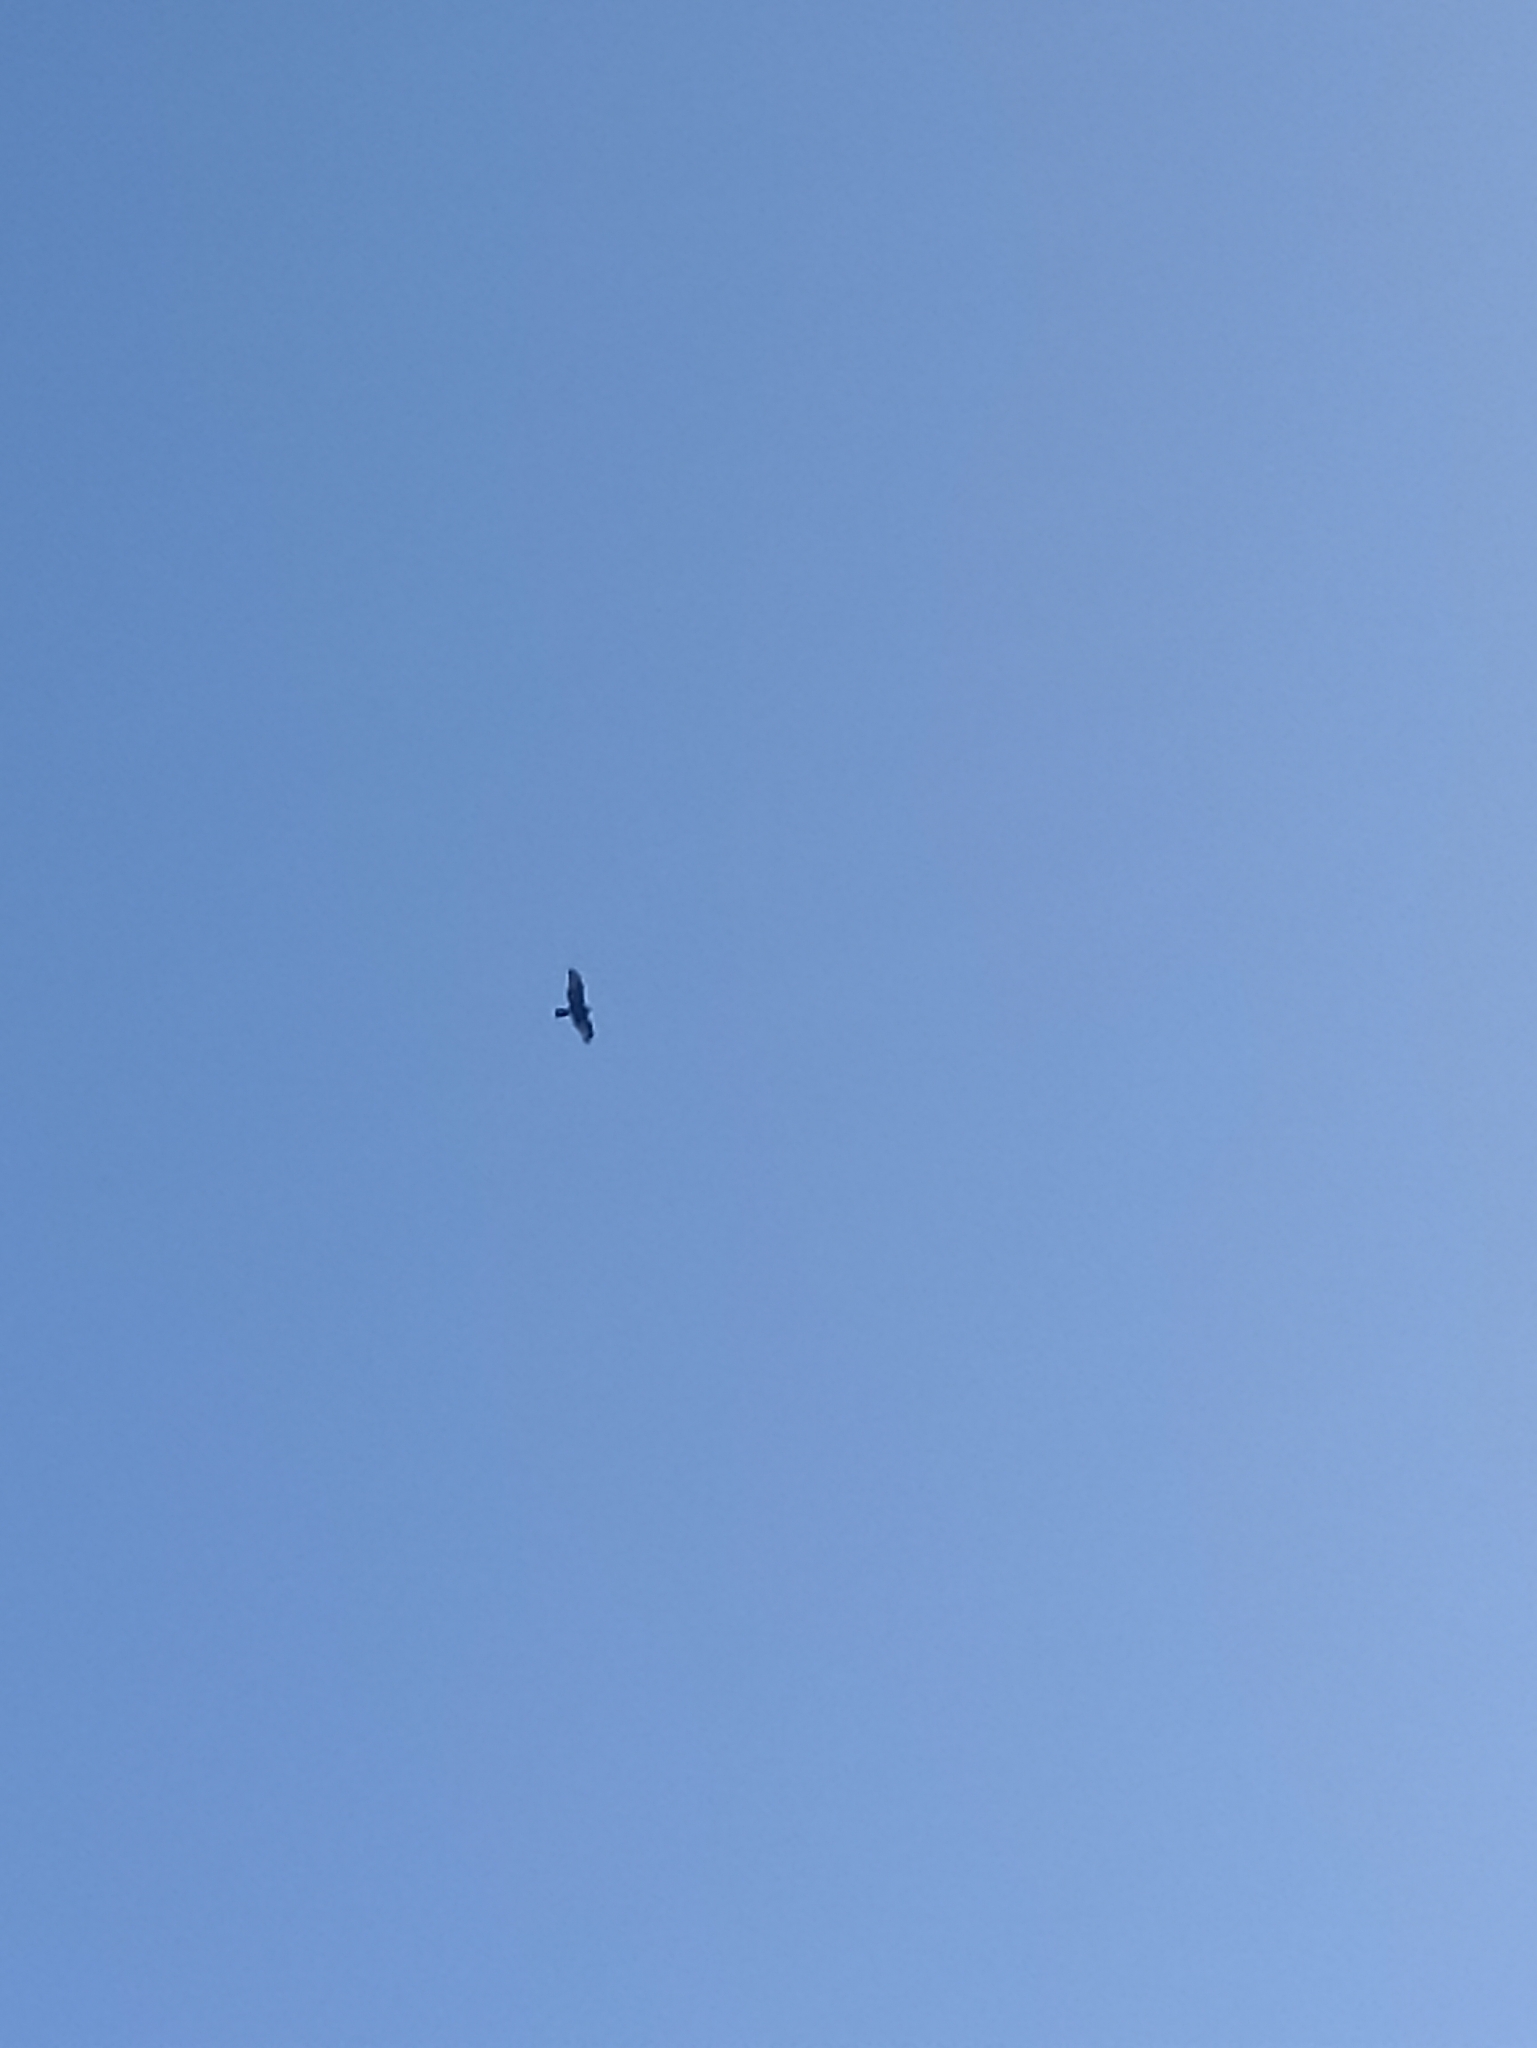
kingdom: Animalia
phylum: Chordata
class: Aves
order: Accipitriformes
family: Accipitridae
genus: Circus
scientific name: Circus approximans
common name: Swamp harrier
